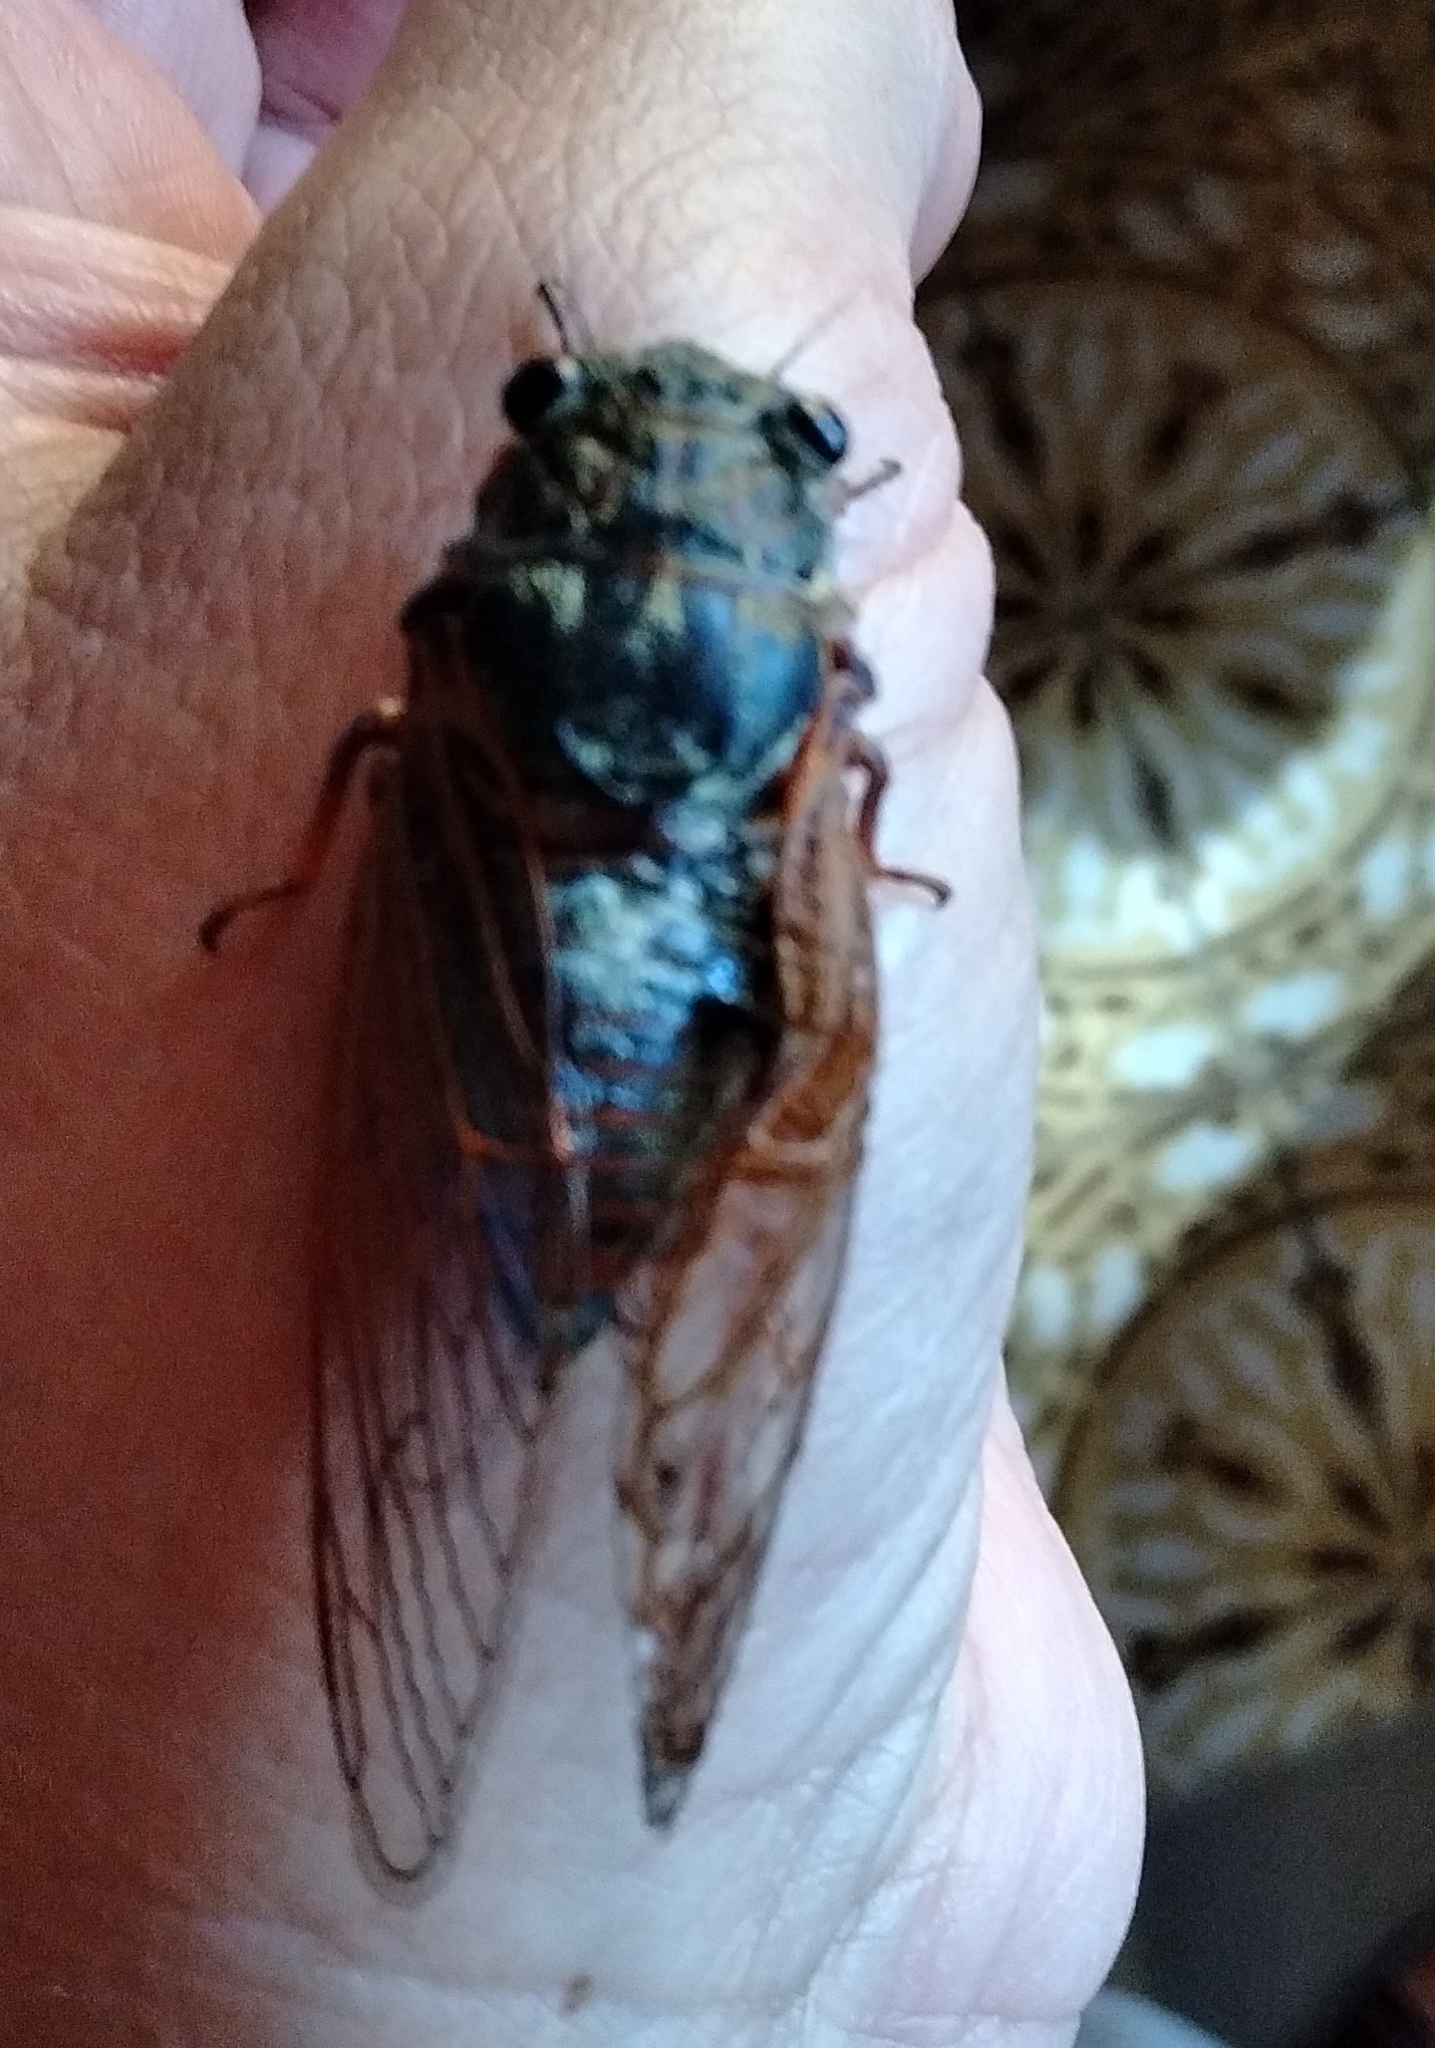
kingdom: Animalia
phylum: Arthropoda
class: Insecta
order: Hemiptera
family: Cicadidae
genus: Tibicina
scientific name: Tibicina haematodes
